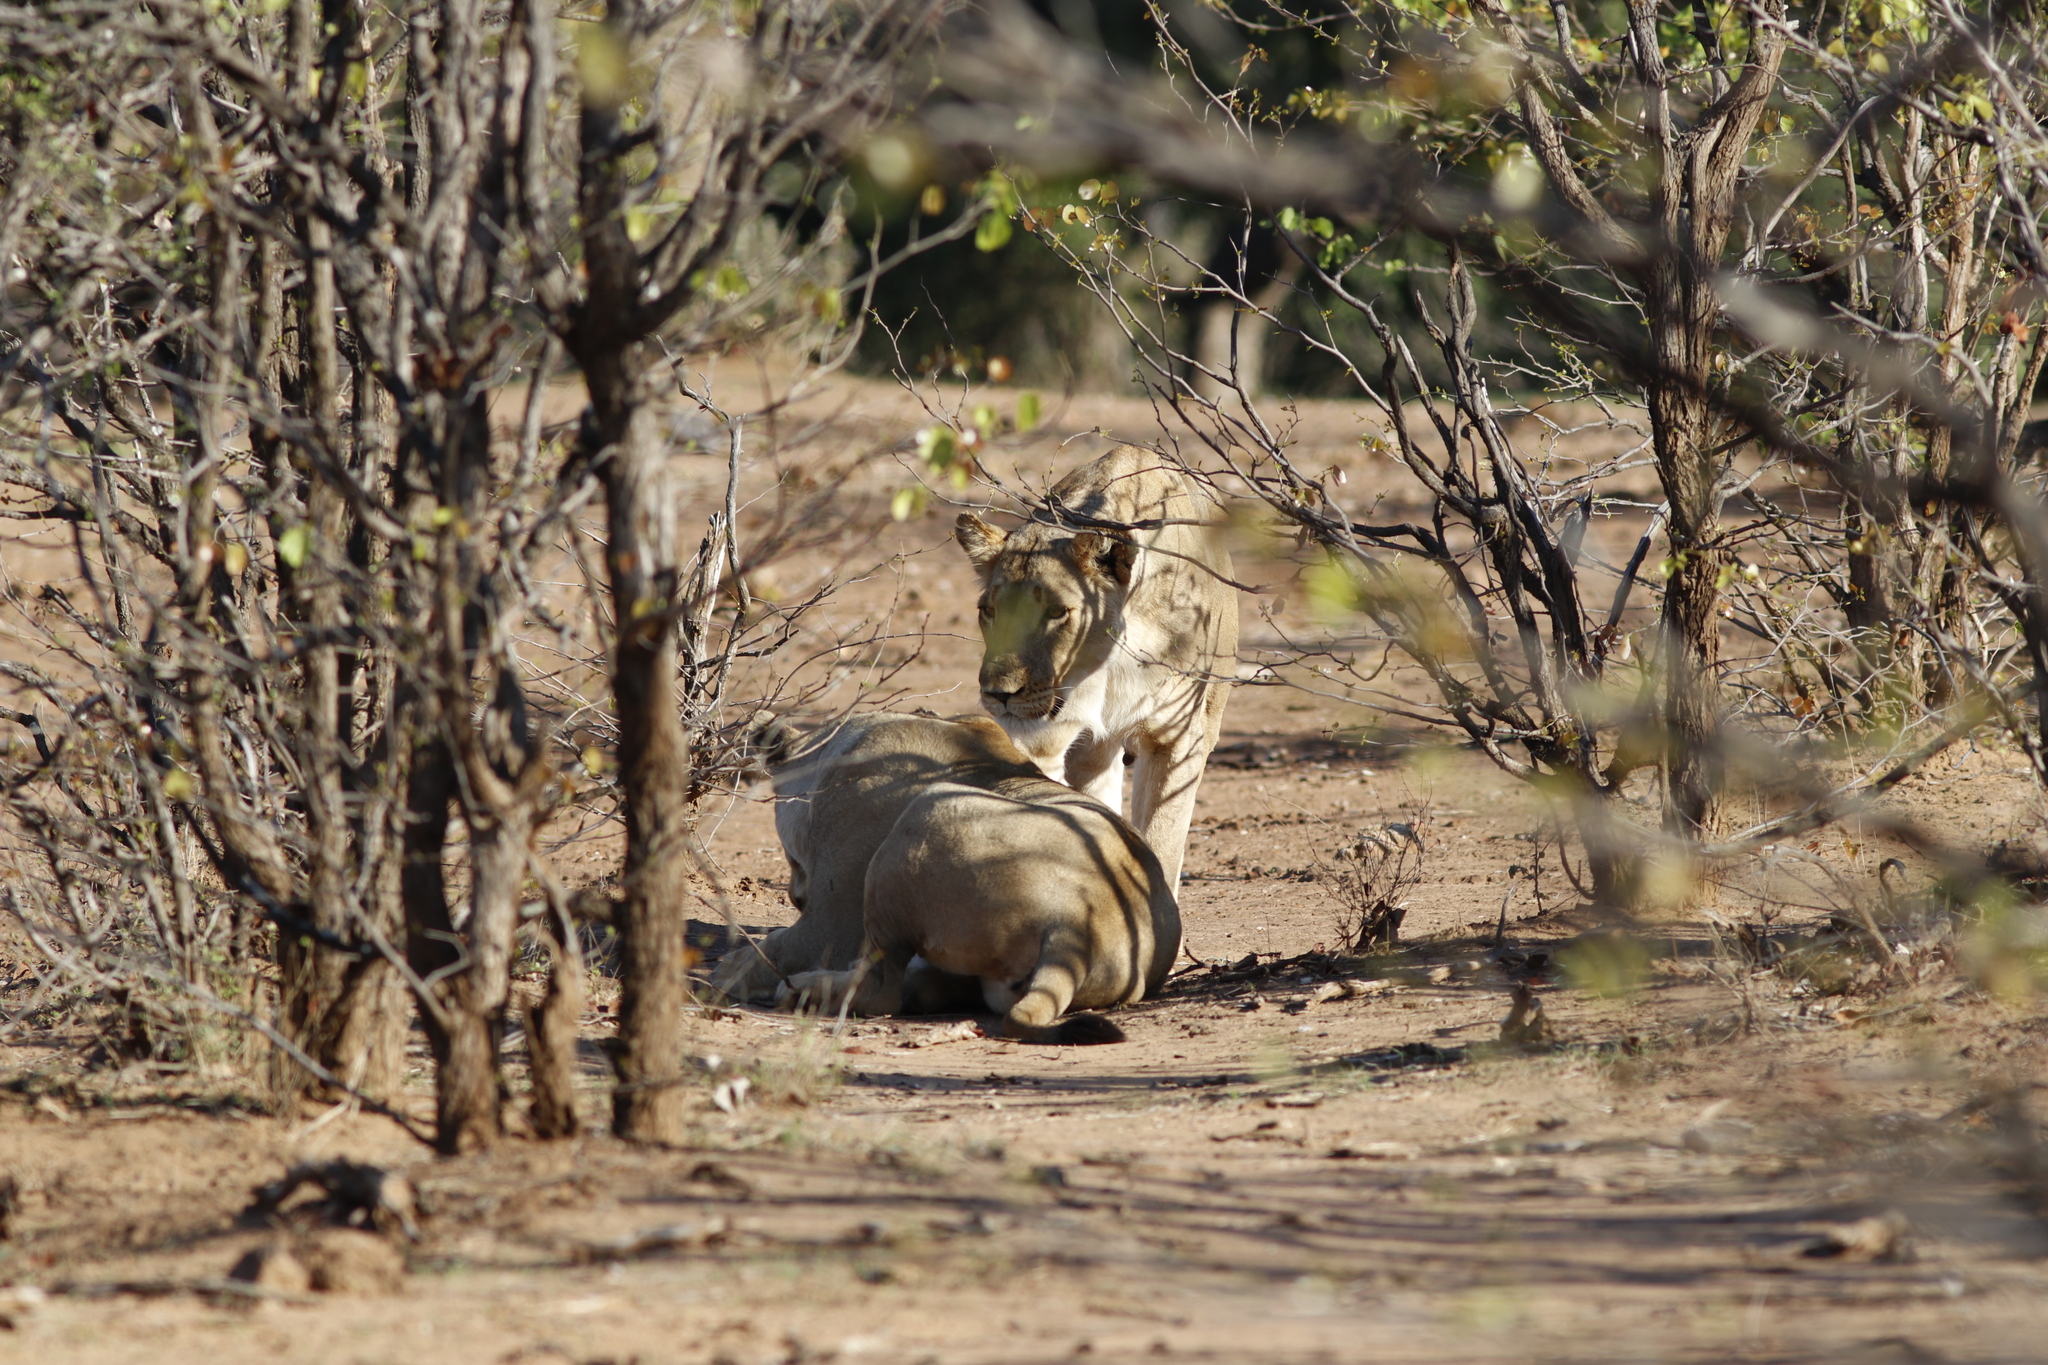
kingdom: Animalia
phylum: Chordata
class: Mammalia
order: Carnivora
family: Felidae
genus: Panthera
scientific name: Panthera leo
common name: Lion
